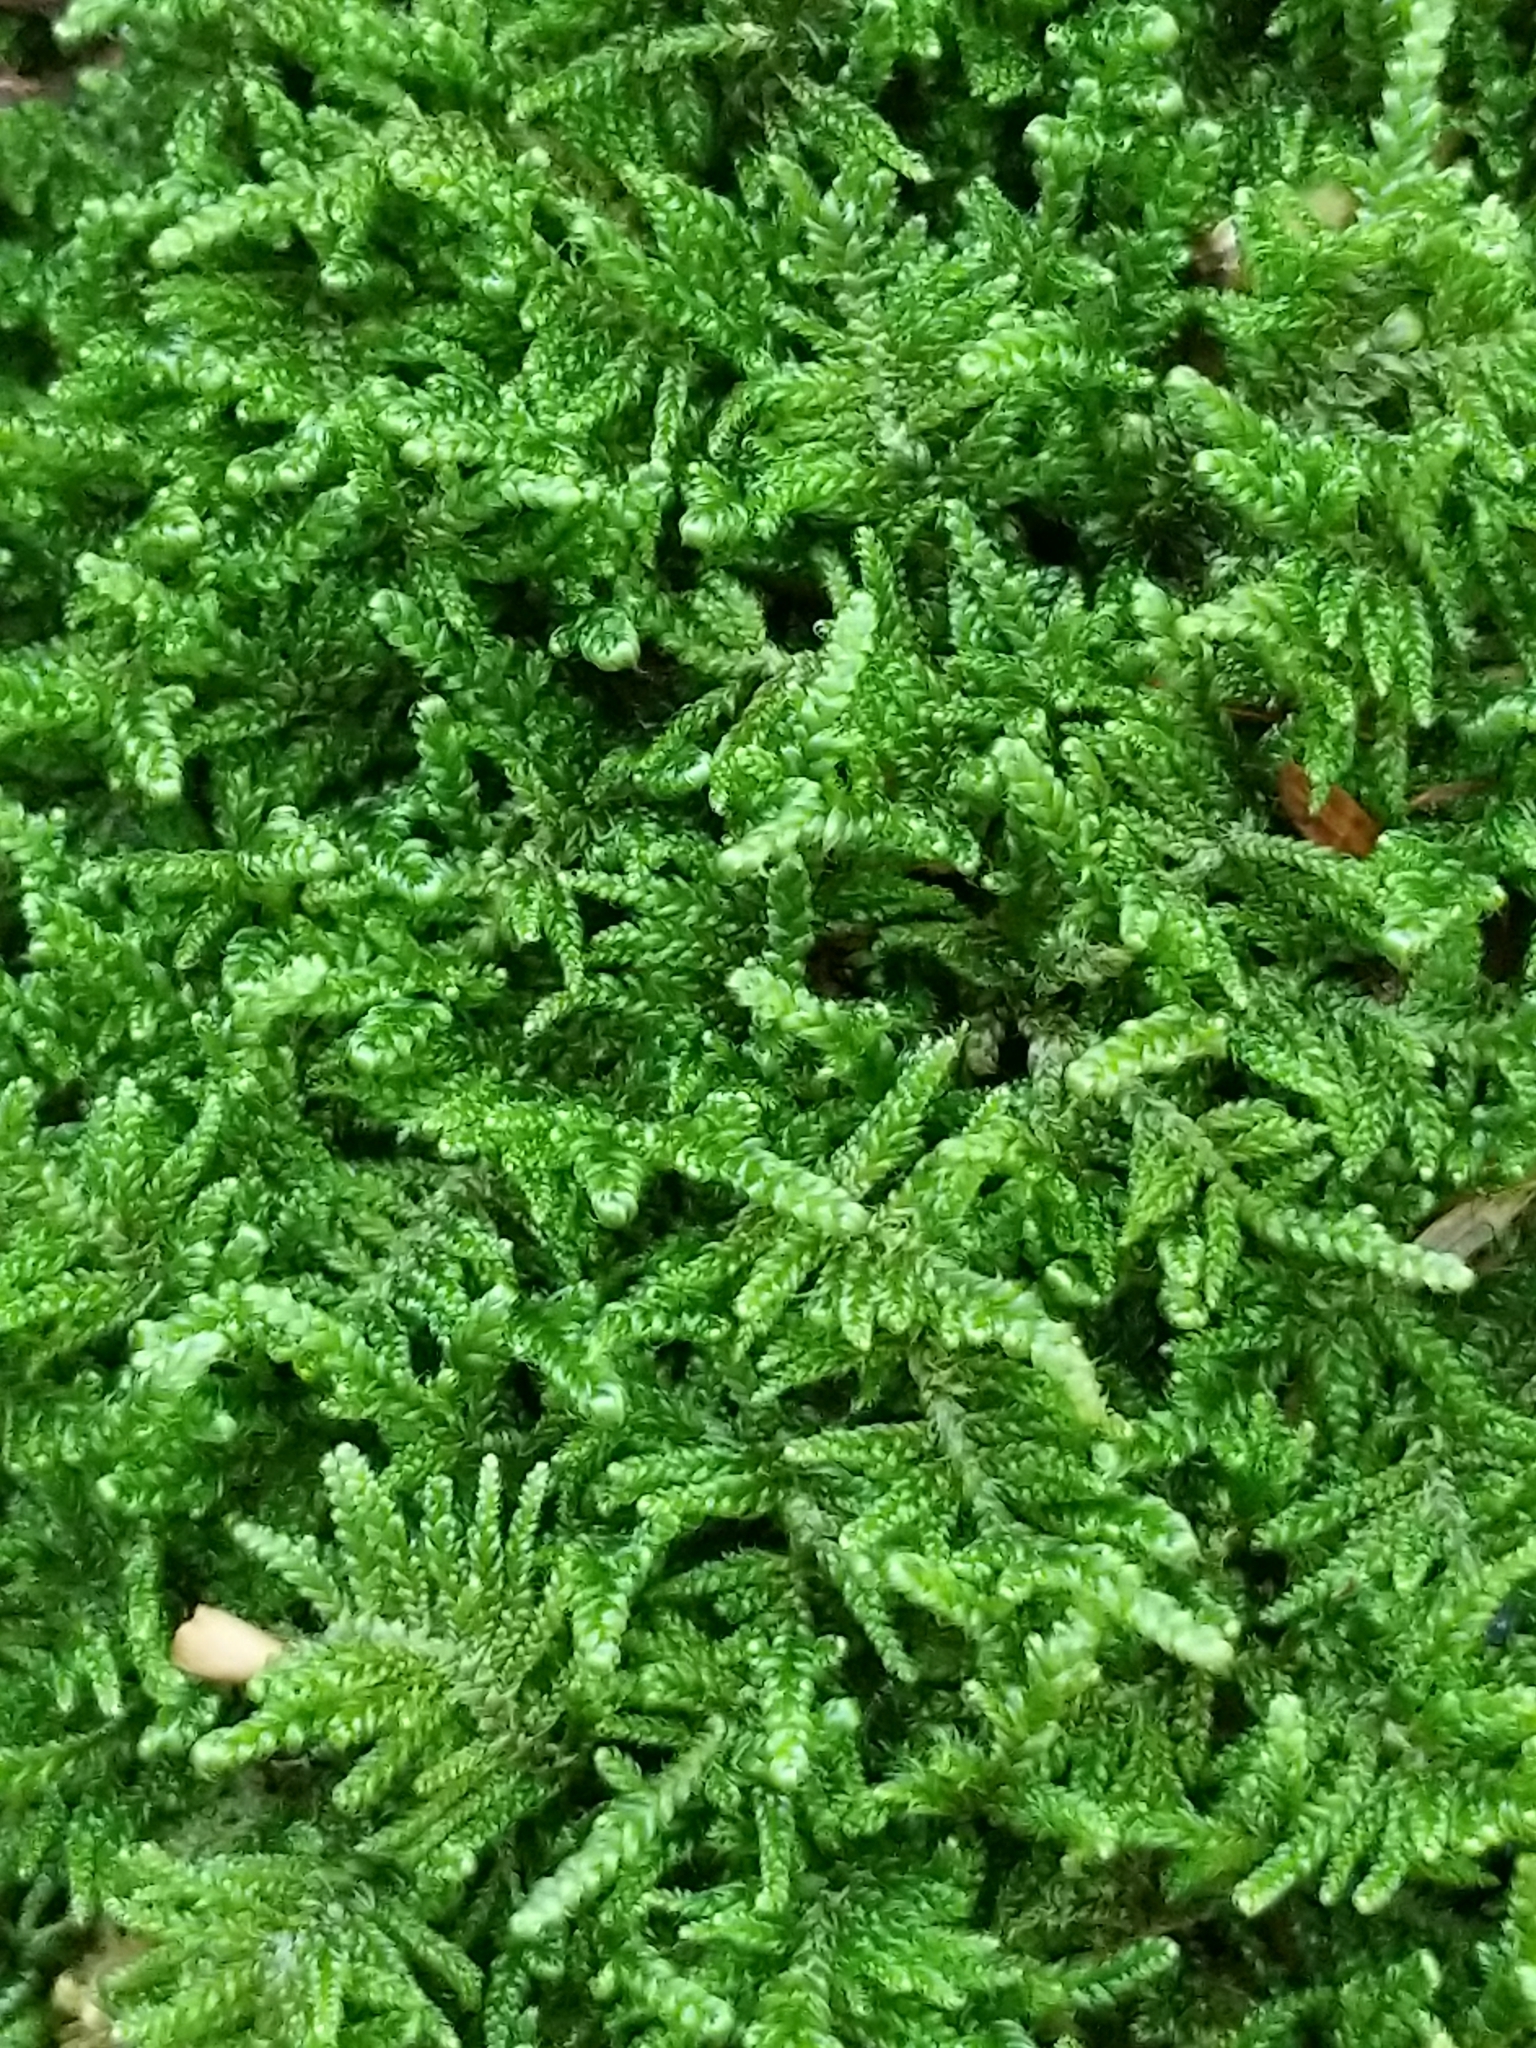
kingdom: Plantae
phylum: Bryophyta
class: Bryopsida
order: Hypnales
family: Callicladiaceae
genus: Callicladium
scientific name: Callicladium imponens
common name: Brocade moss
